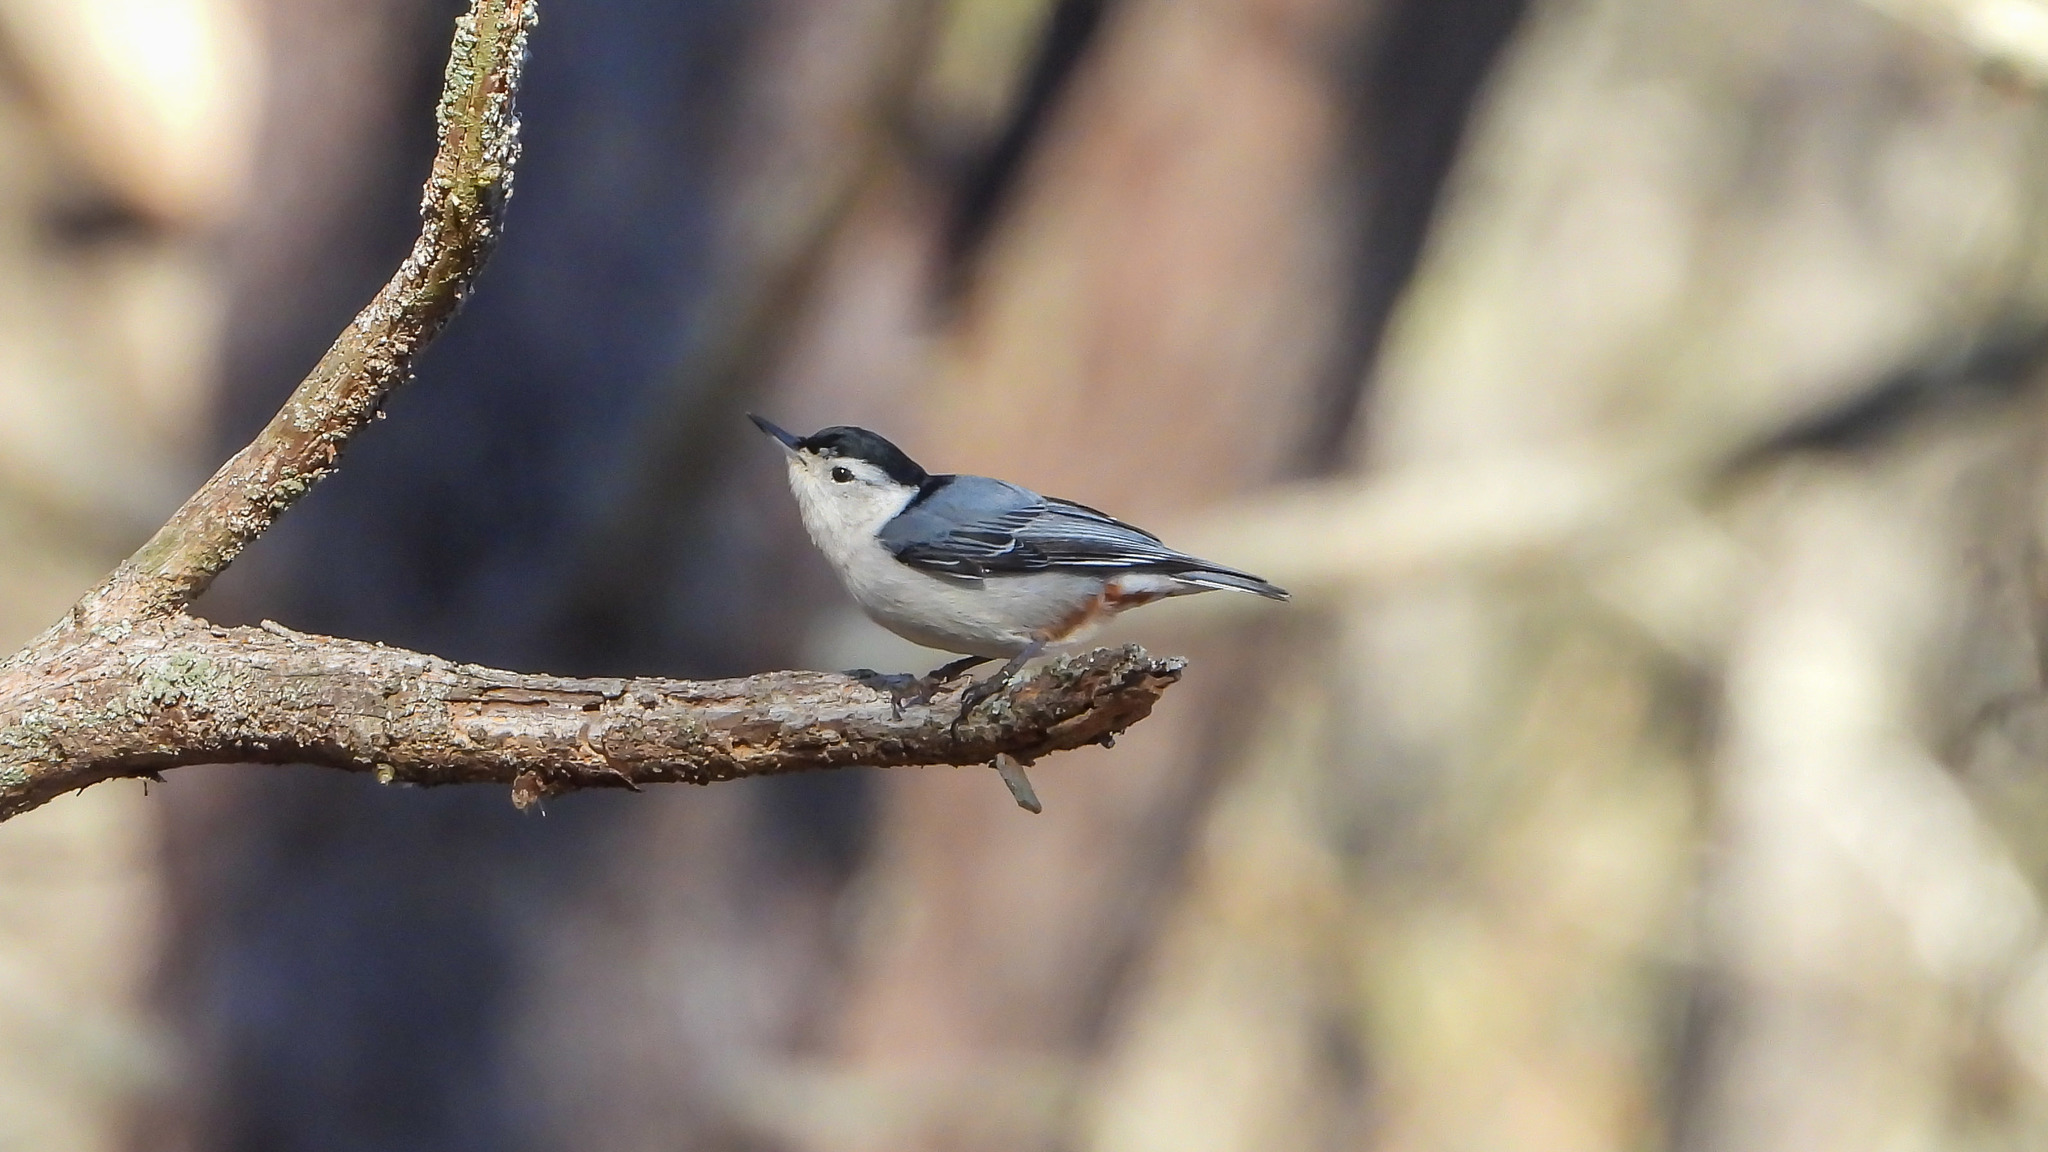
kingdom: Animalia
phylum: Chordata
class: Aves
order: Passeriformes
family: Sittidae
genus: Sitta
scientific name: Sitta carolinensis
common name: White-breasted nuthatch
